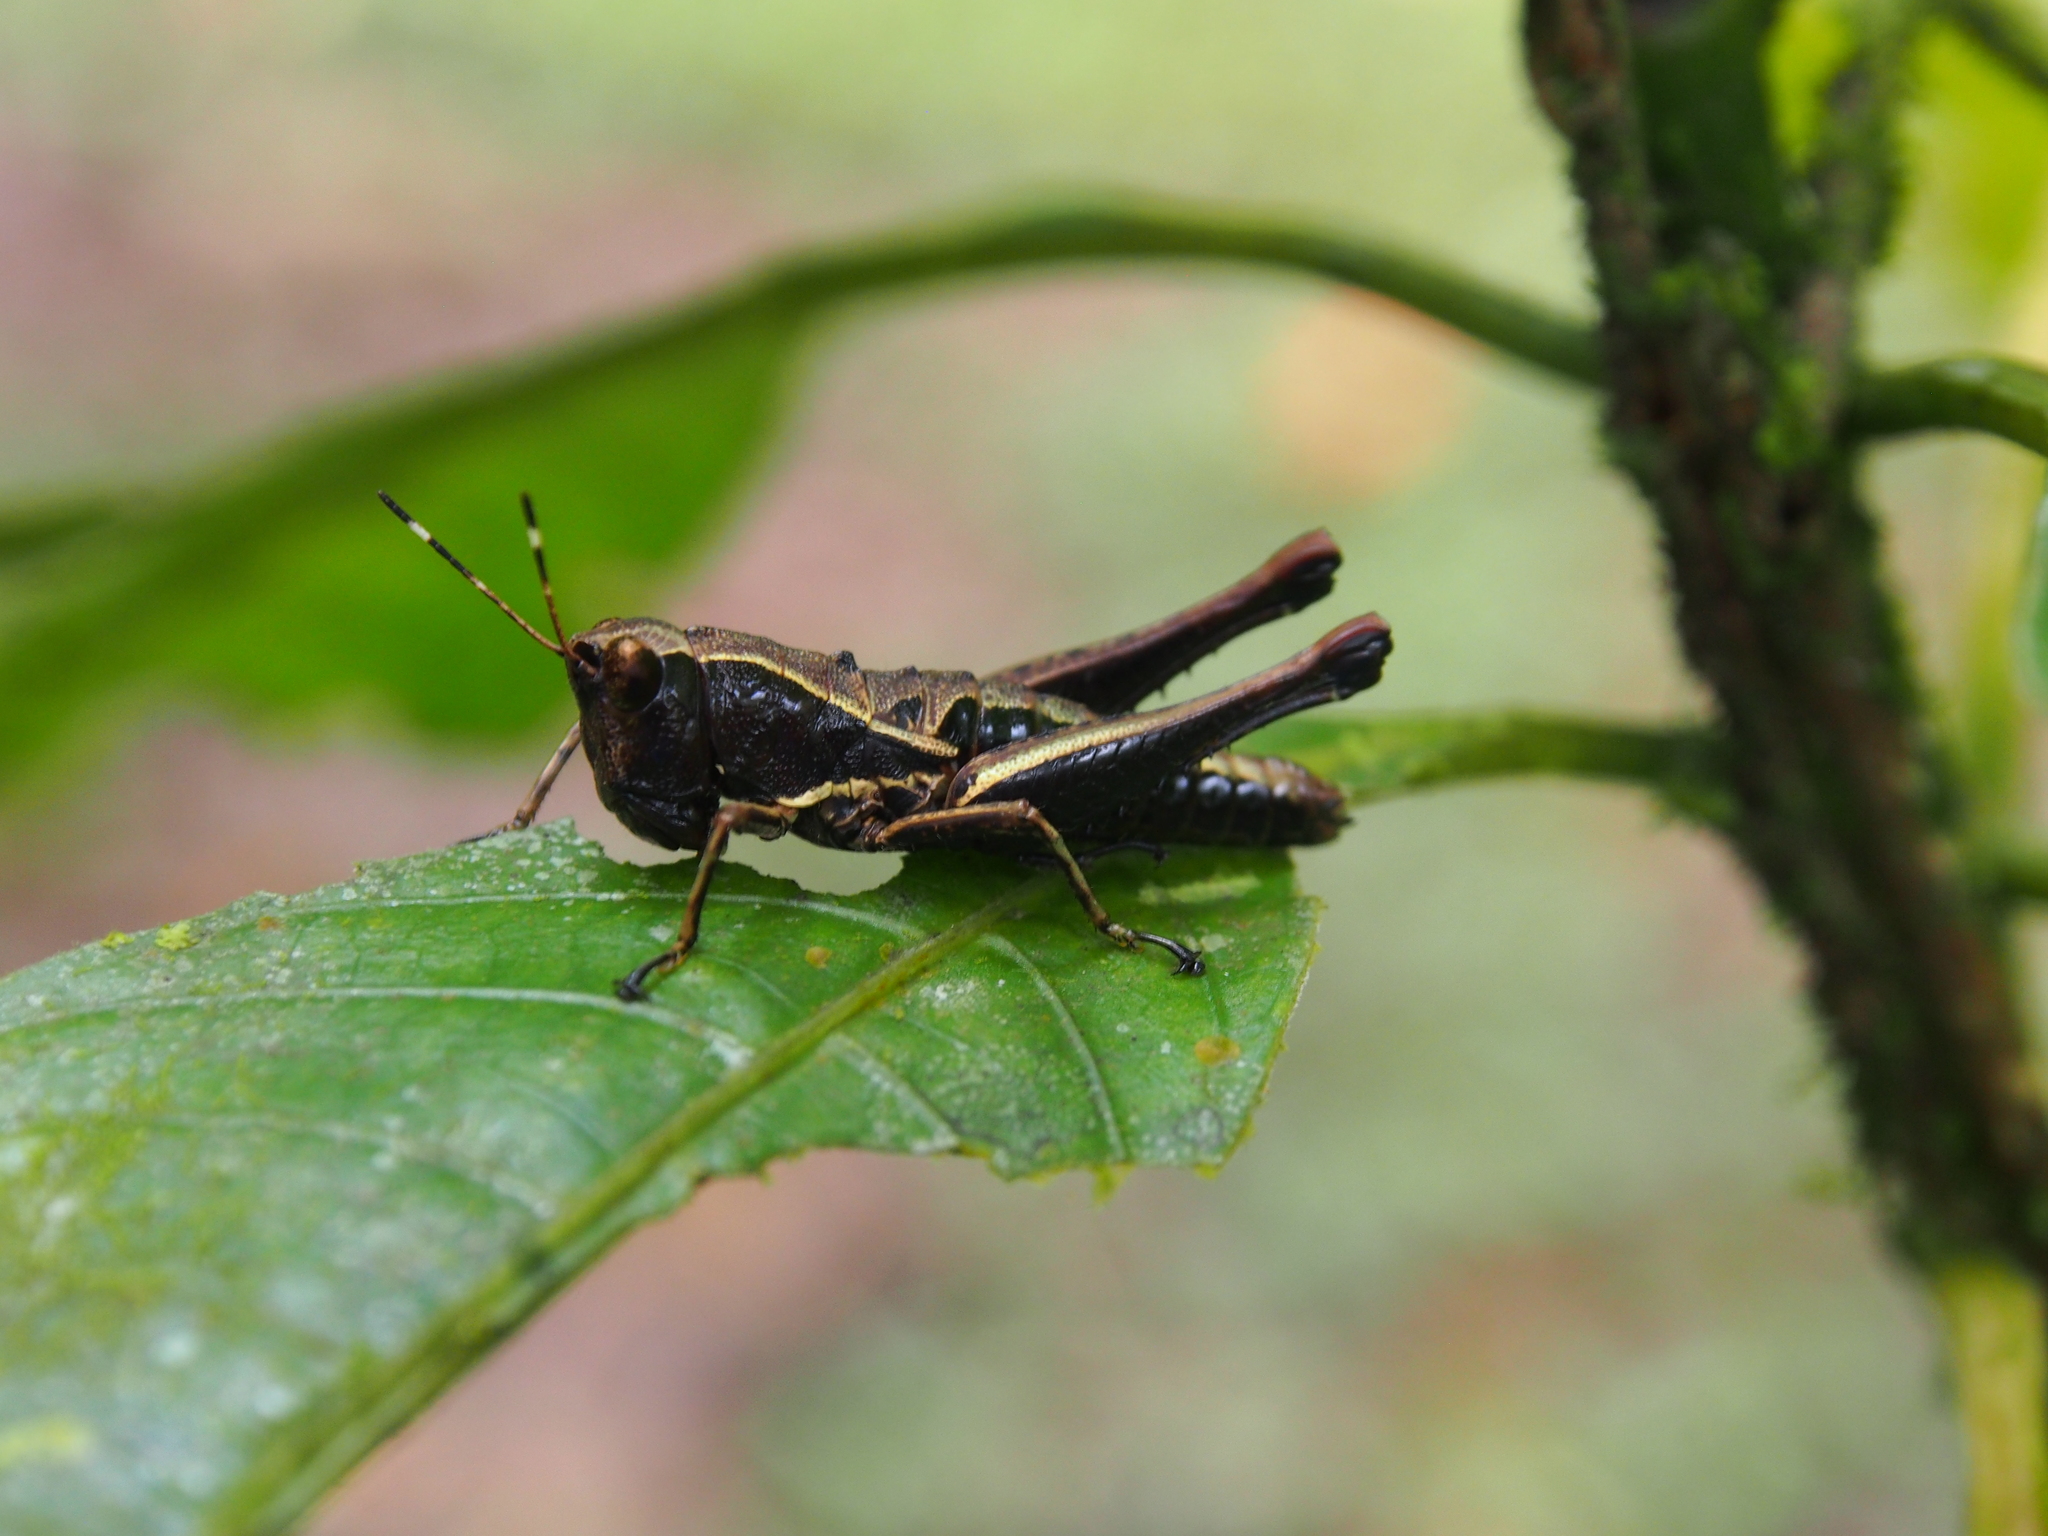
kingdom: Animalia
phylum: Arthropoda
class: Insecta
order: Orthoptera
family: Acrididae
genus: Microtylopteryx
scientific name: Microtylopteryx hebardi
